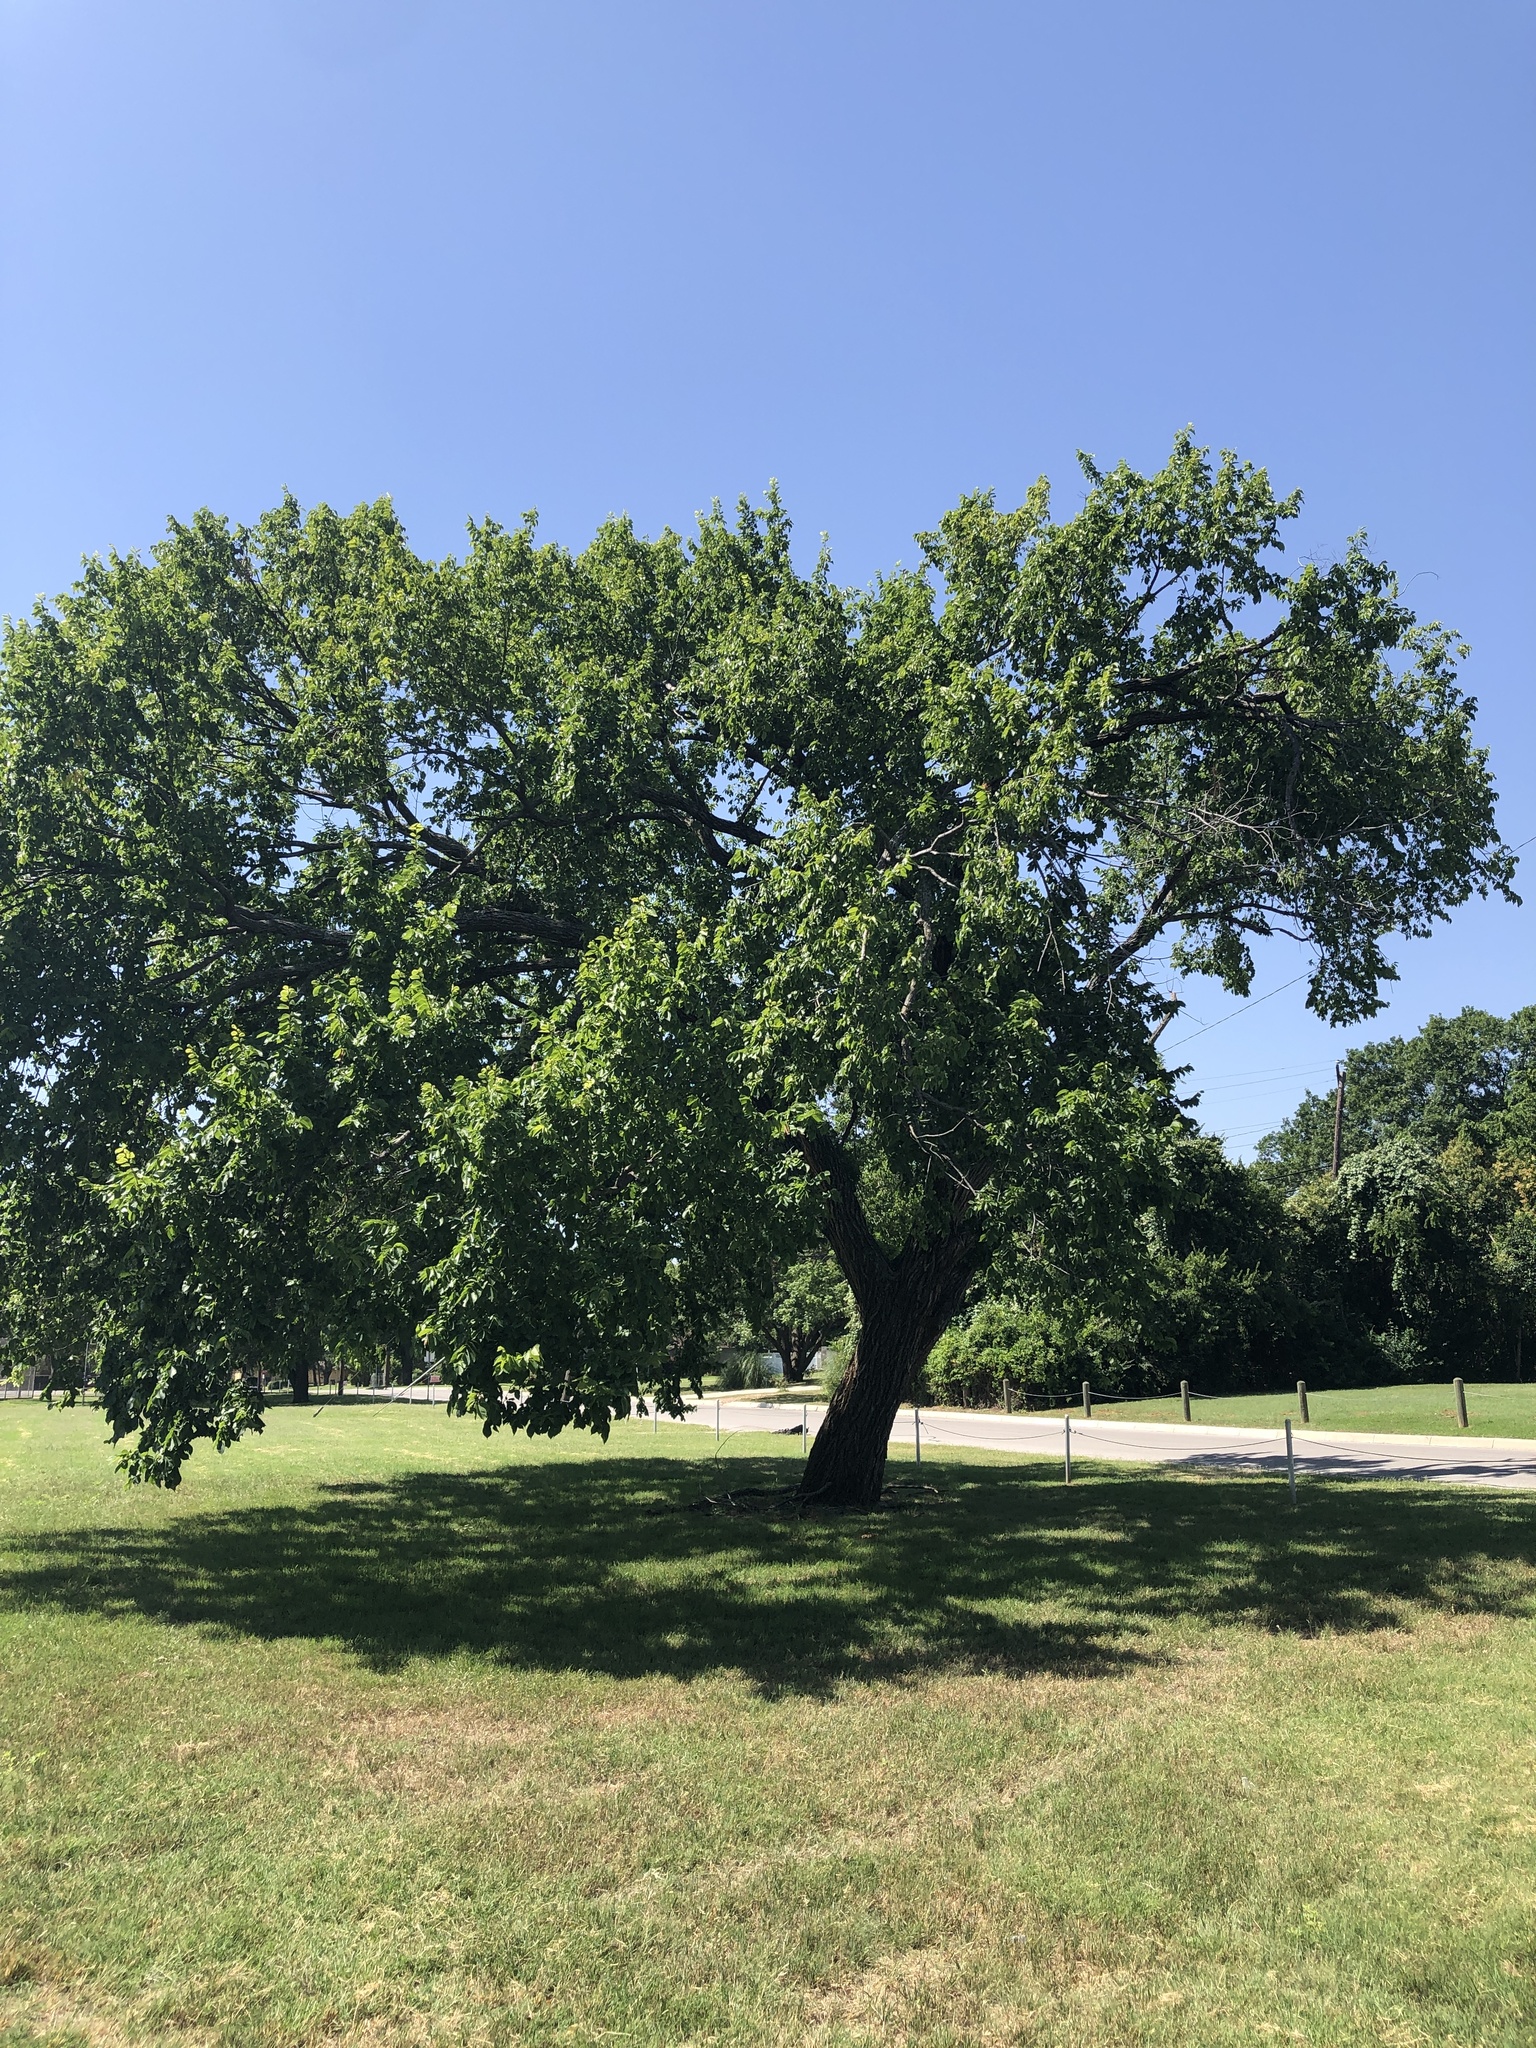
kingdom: Plantae
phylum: Tracheophyta
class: Magnoliopsida
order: Rosales
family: Ulmaceae
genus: Ulmus
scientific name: Ulmus americana
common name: American elm
